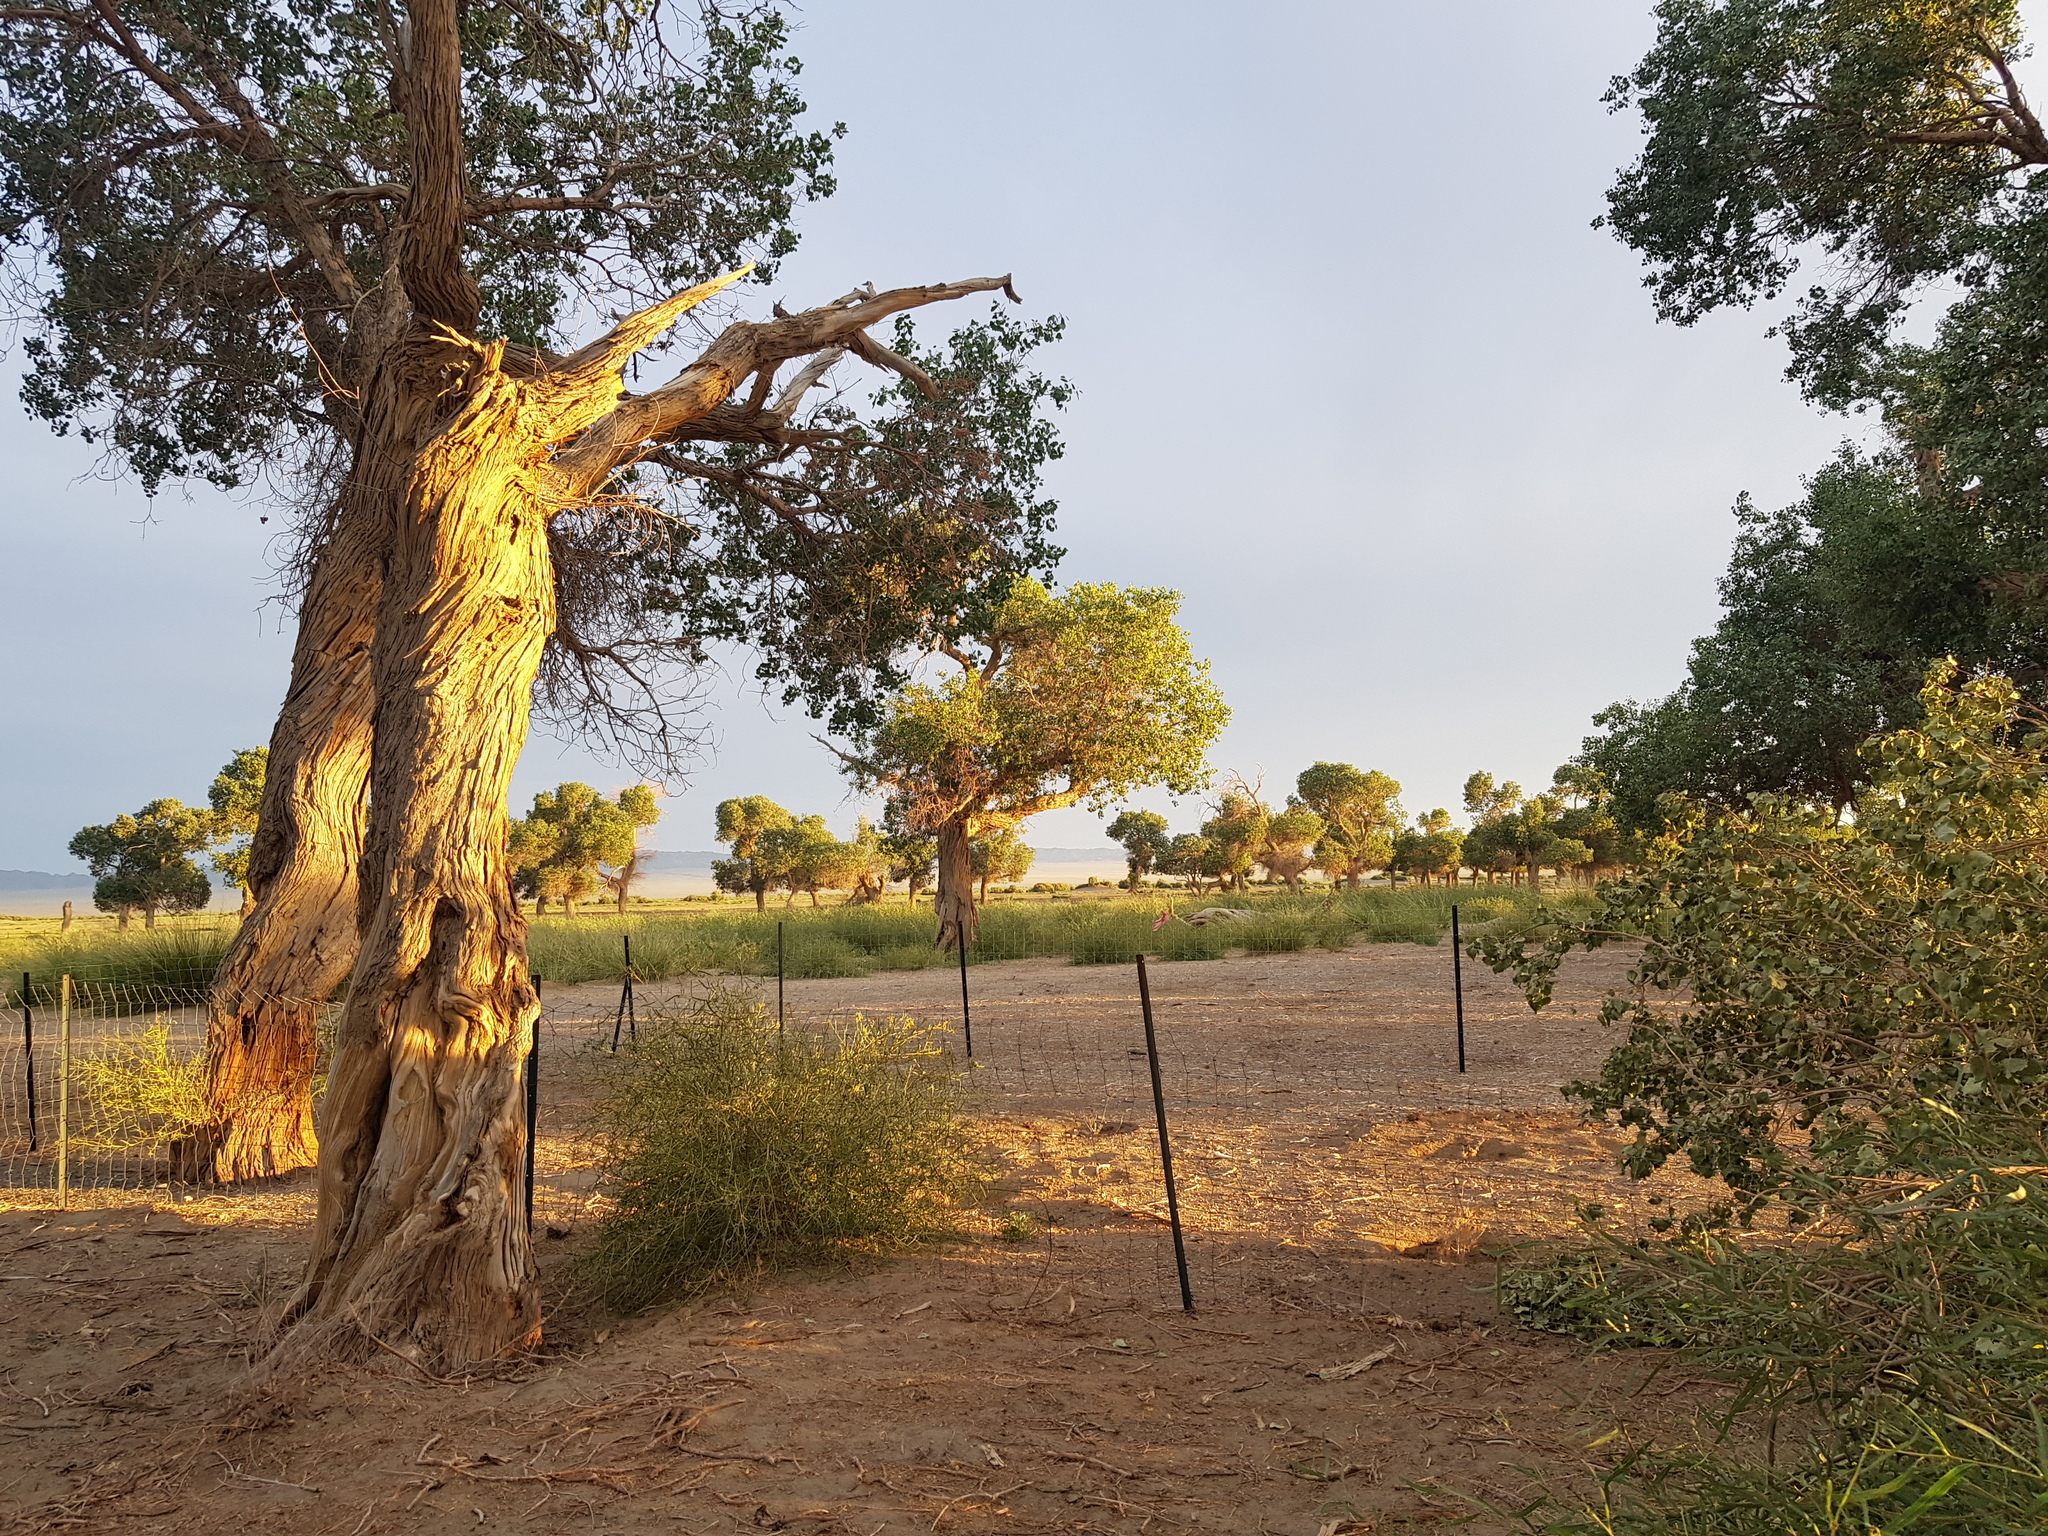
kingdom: Plantae
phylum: Tracheophyta
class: Magnoliopsida
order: Malpighiales
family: Salicaceae
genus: Populus
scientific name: Populus euphratica
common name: Euphrates poplar
